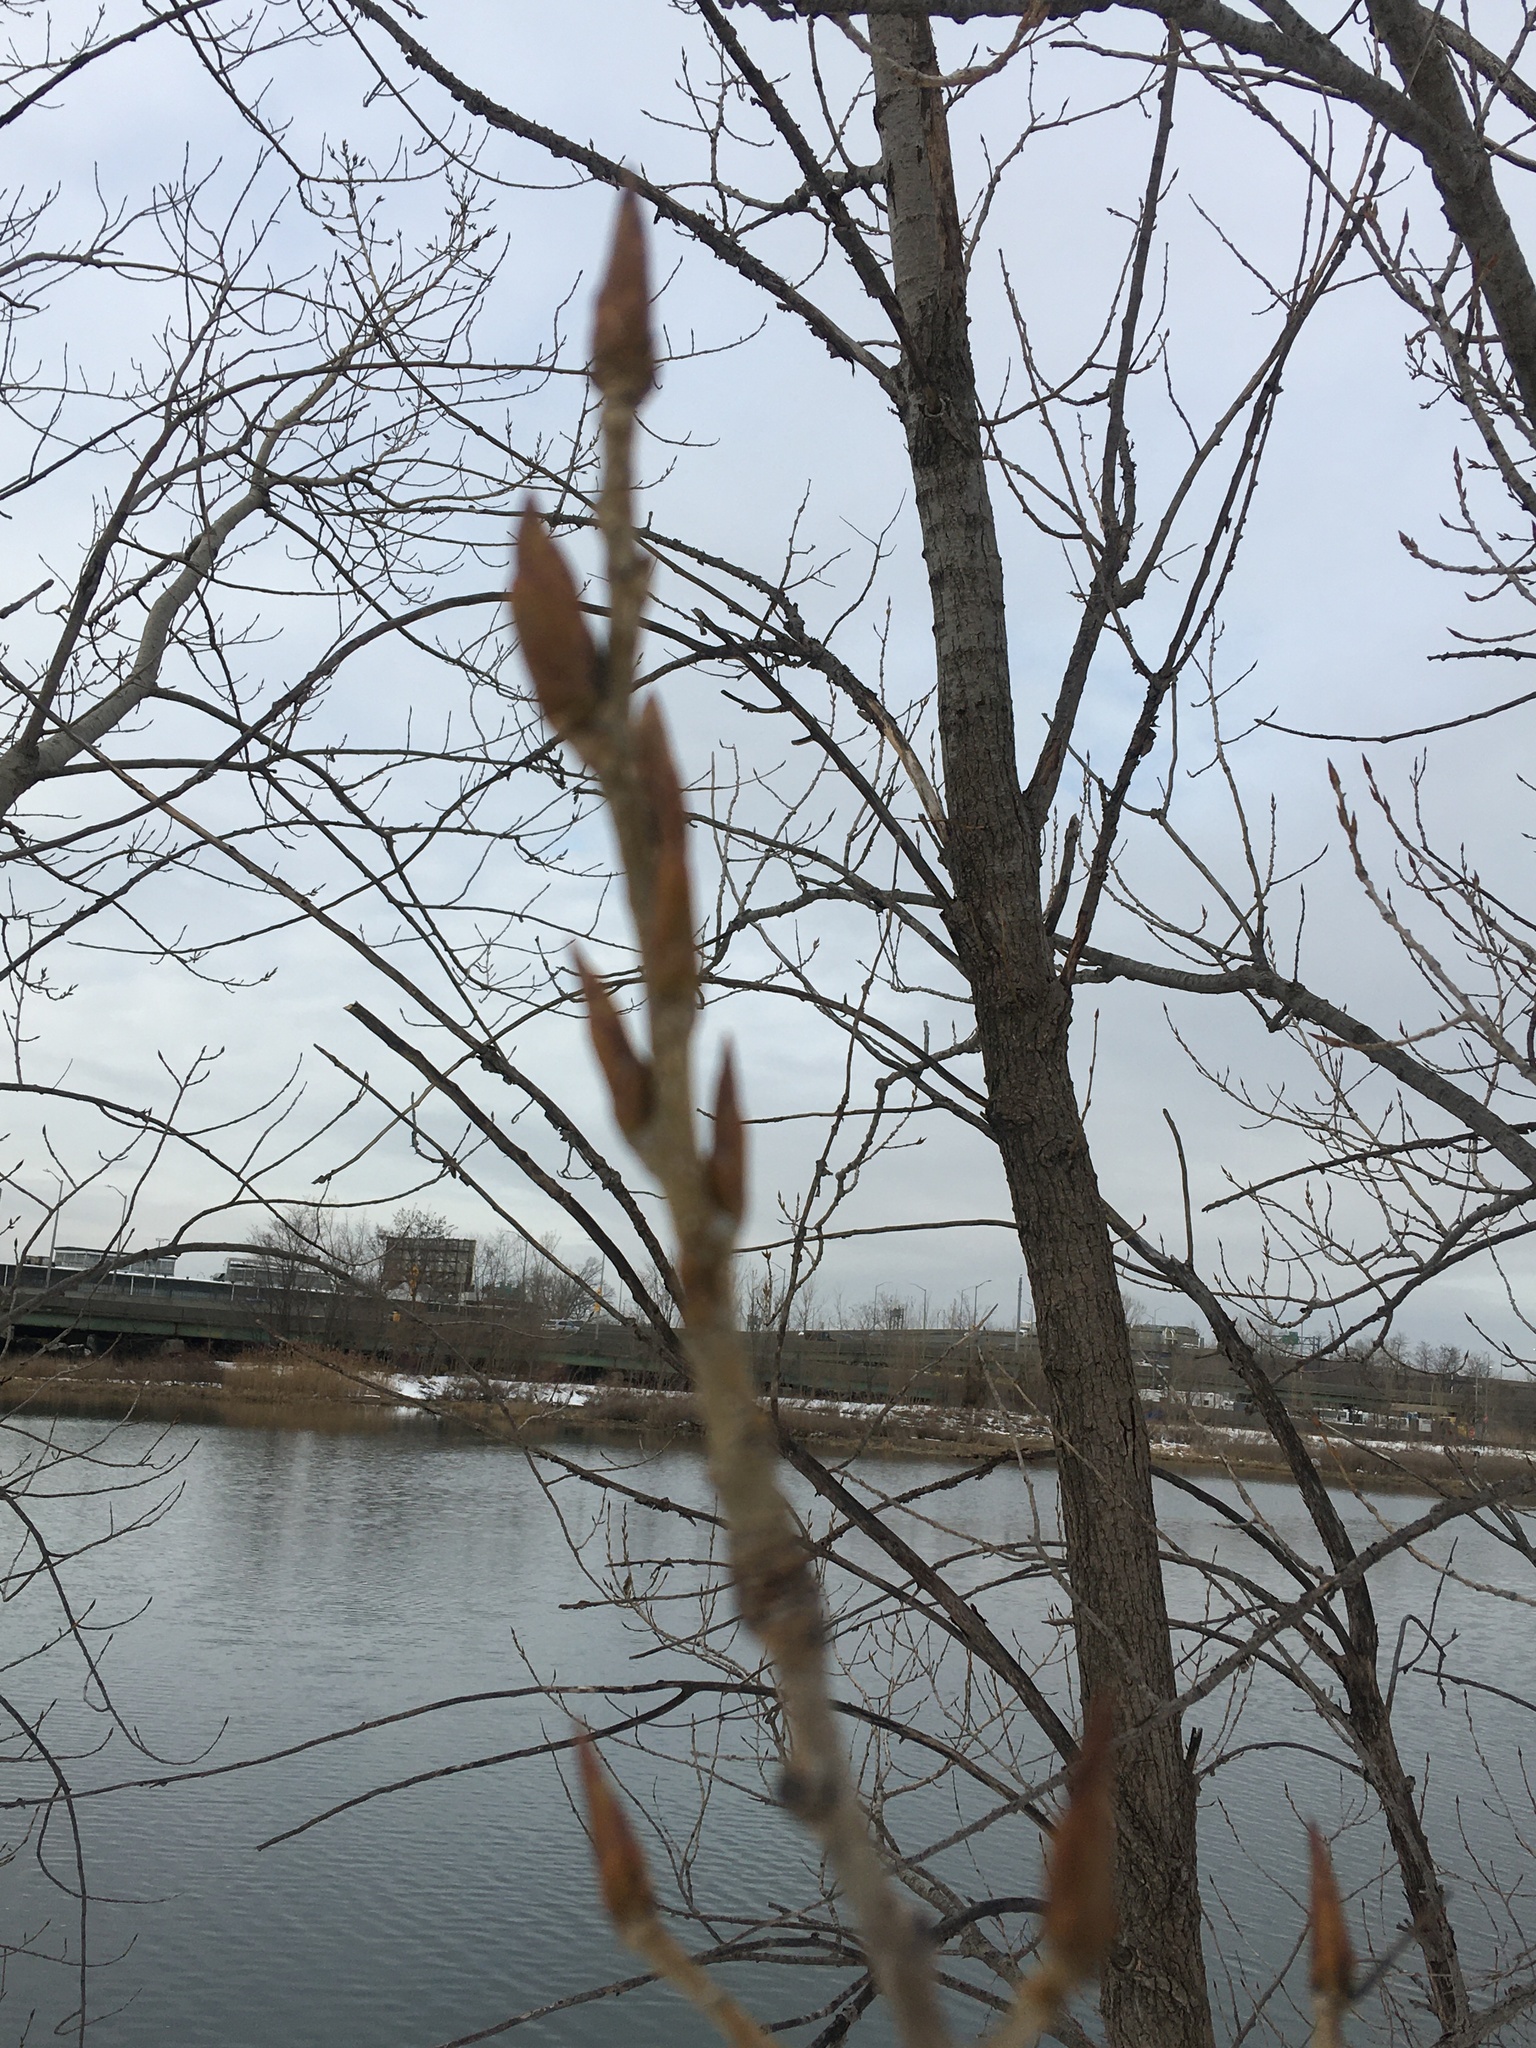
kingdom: Plantae
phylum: Tracheophyta
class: Magnoliopsida
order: Malpighiales
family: Salicaceae
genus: Populus
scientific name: Populus deltoides
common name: Eastern cottonwood
